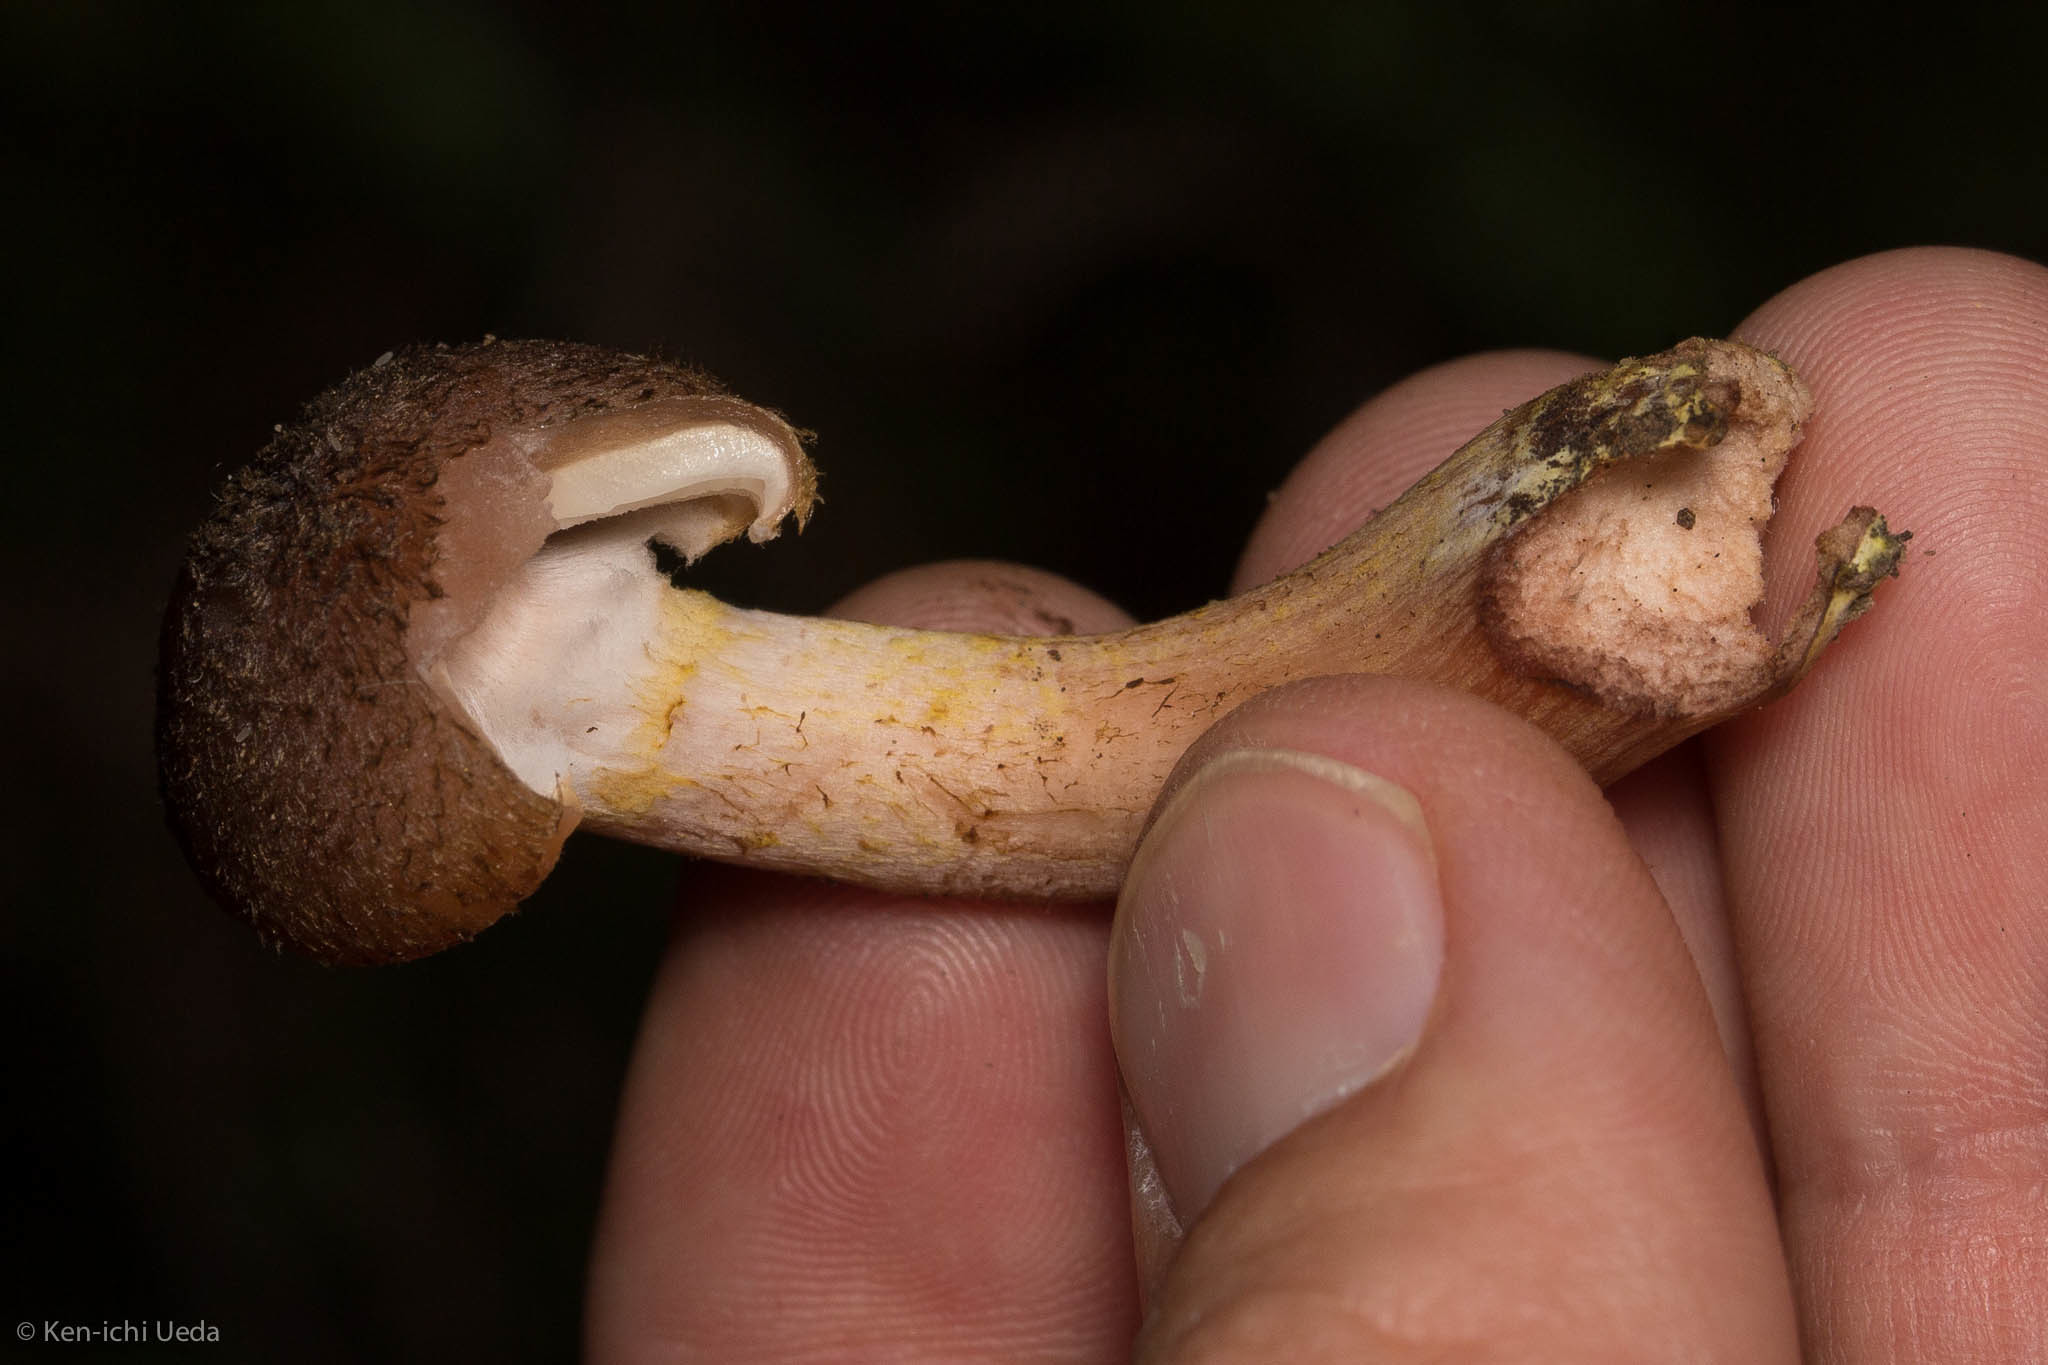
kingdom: Fungi
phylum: Basidiomycota
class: Agaricomycetes
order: Agaricales
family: Physalacriaceae
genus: Armillaria
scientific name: Armillaria sinapina
